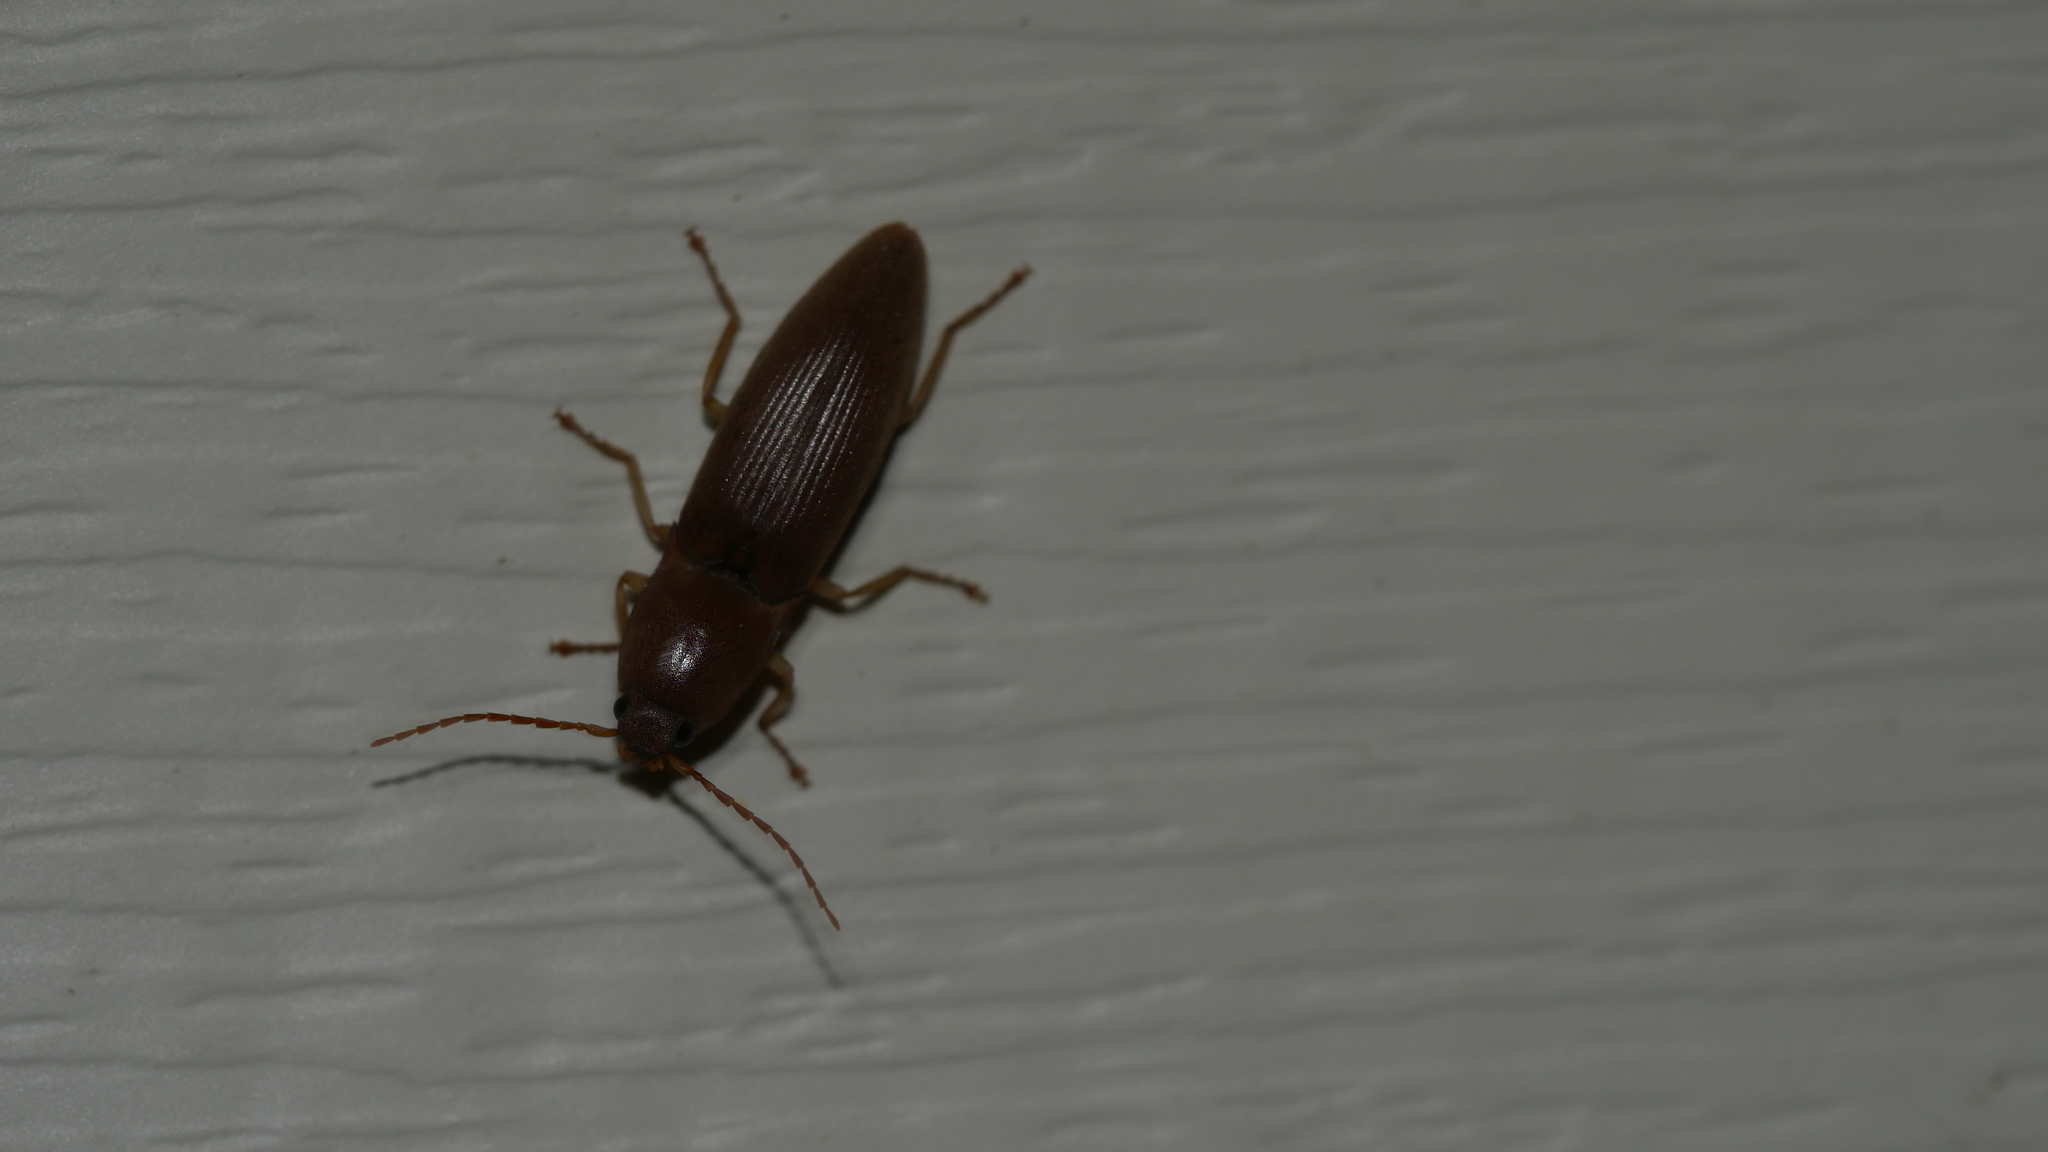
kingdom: Animalia
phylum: Arthropoda
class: Insecta
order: Coleoptera
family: Elateridae
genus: Monocrepidius
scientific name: Monocrepidius lividus
